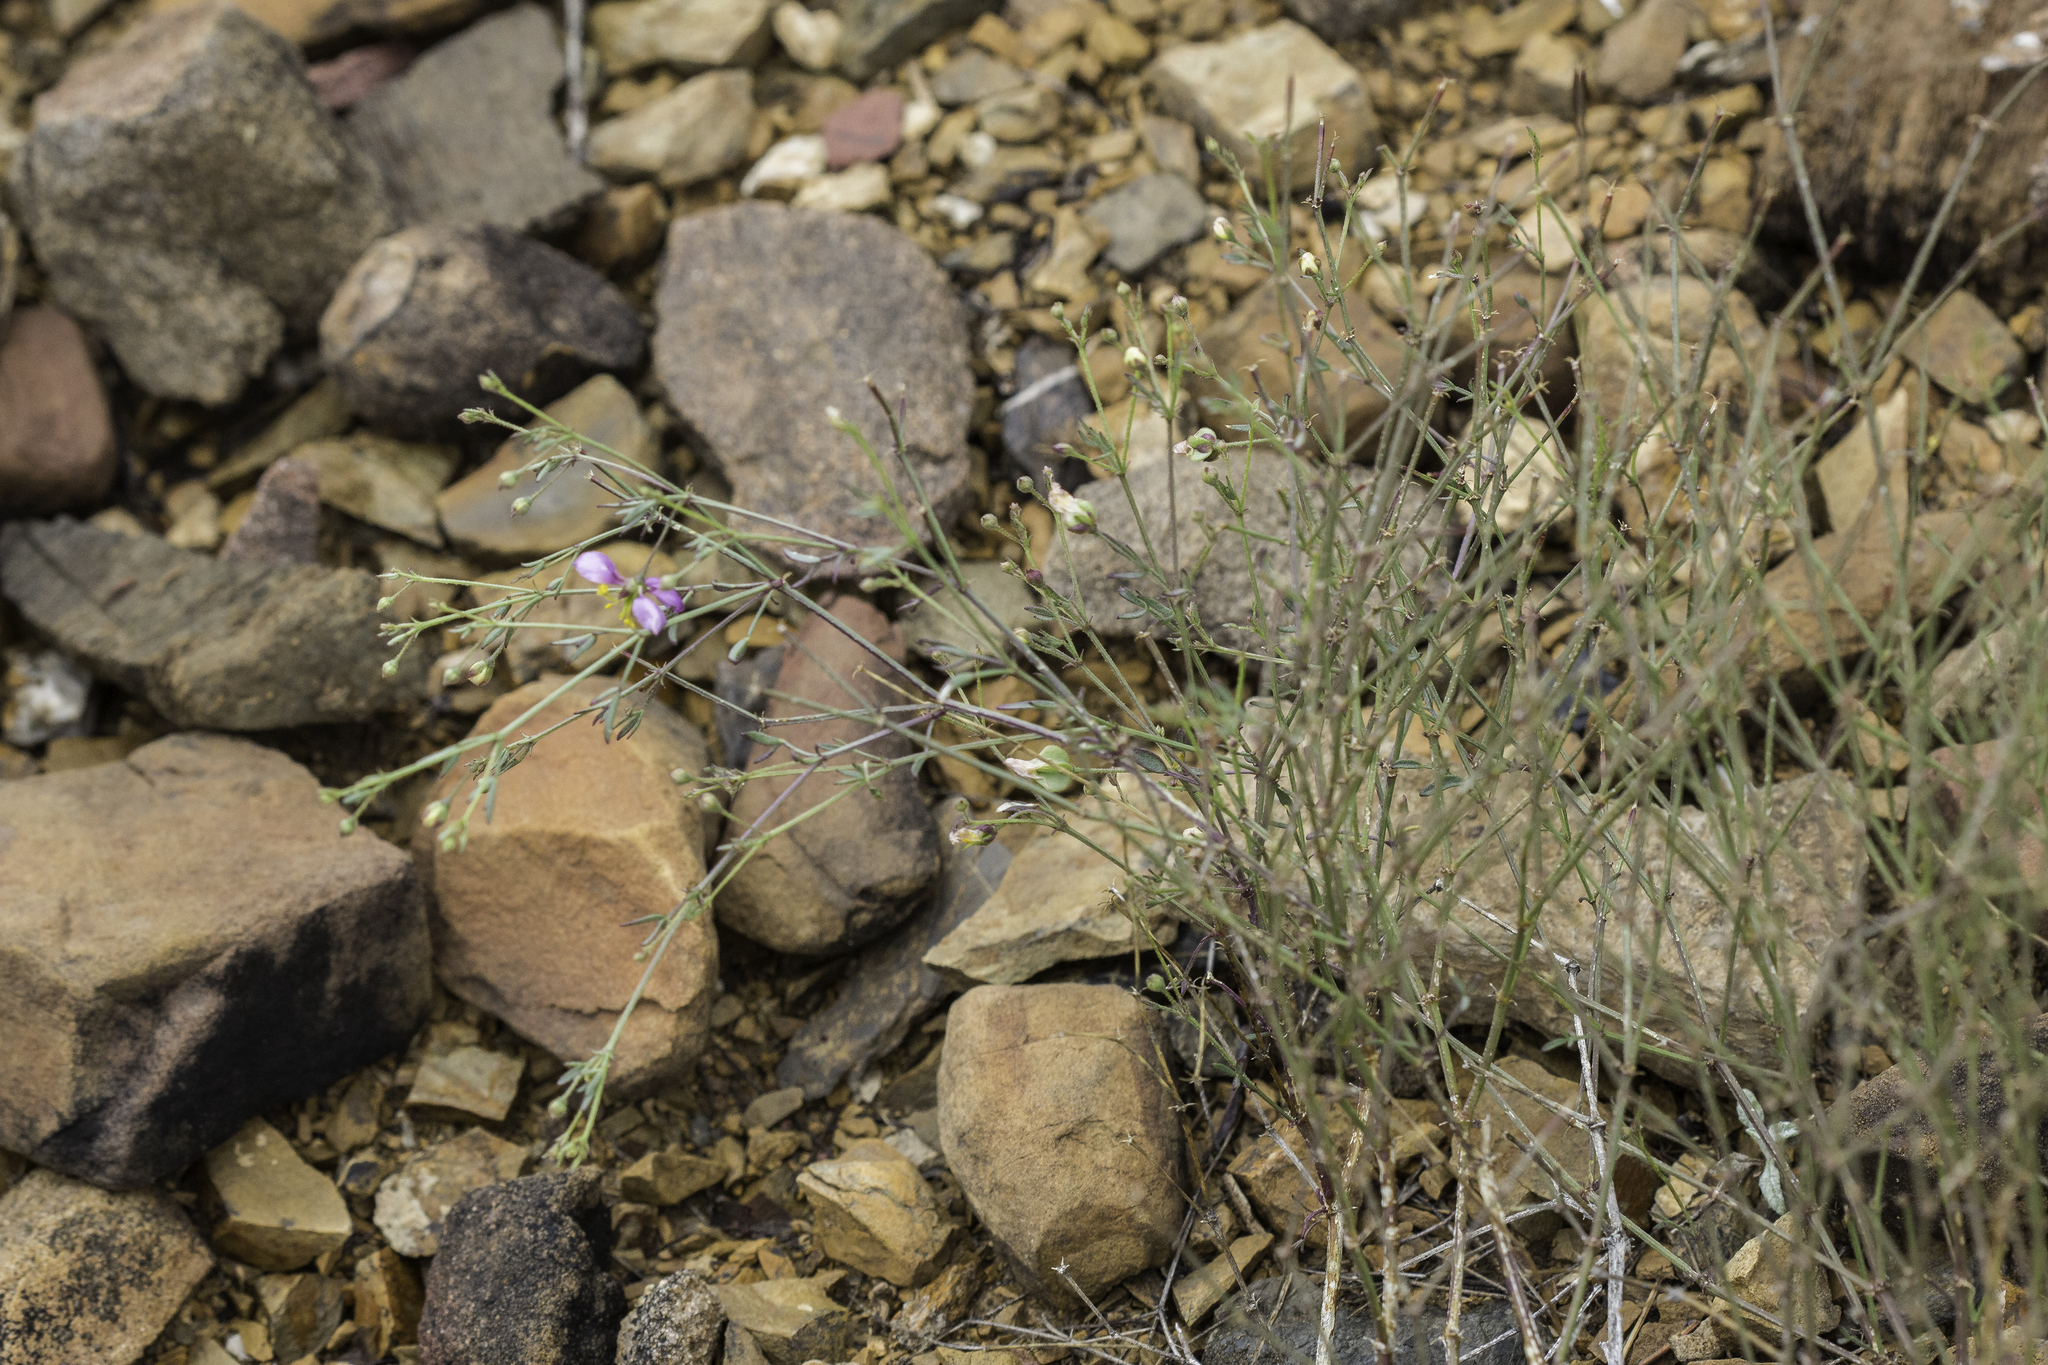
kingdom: Plantae
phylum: Tracheophyta
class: Magnoliopsida
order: Zygophyllales
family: Zygophyllaceae
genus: Fagonia
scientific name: Fagonia laevis
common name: California fagonbush
